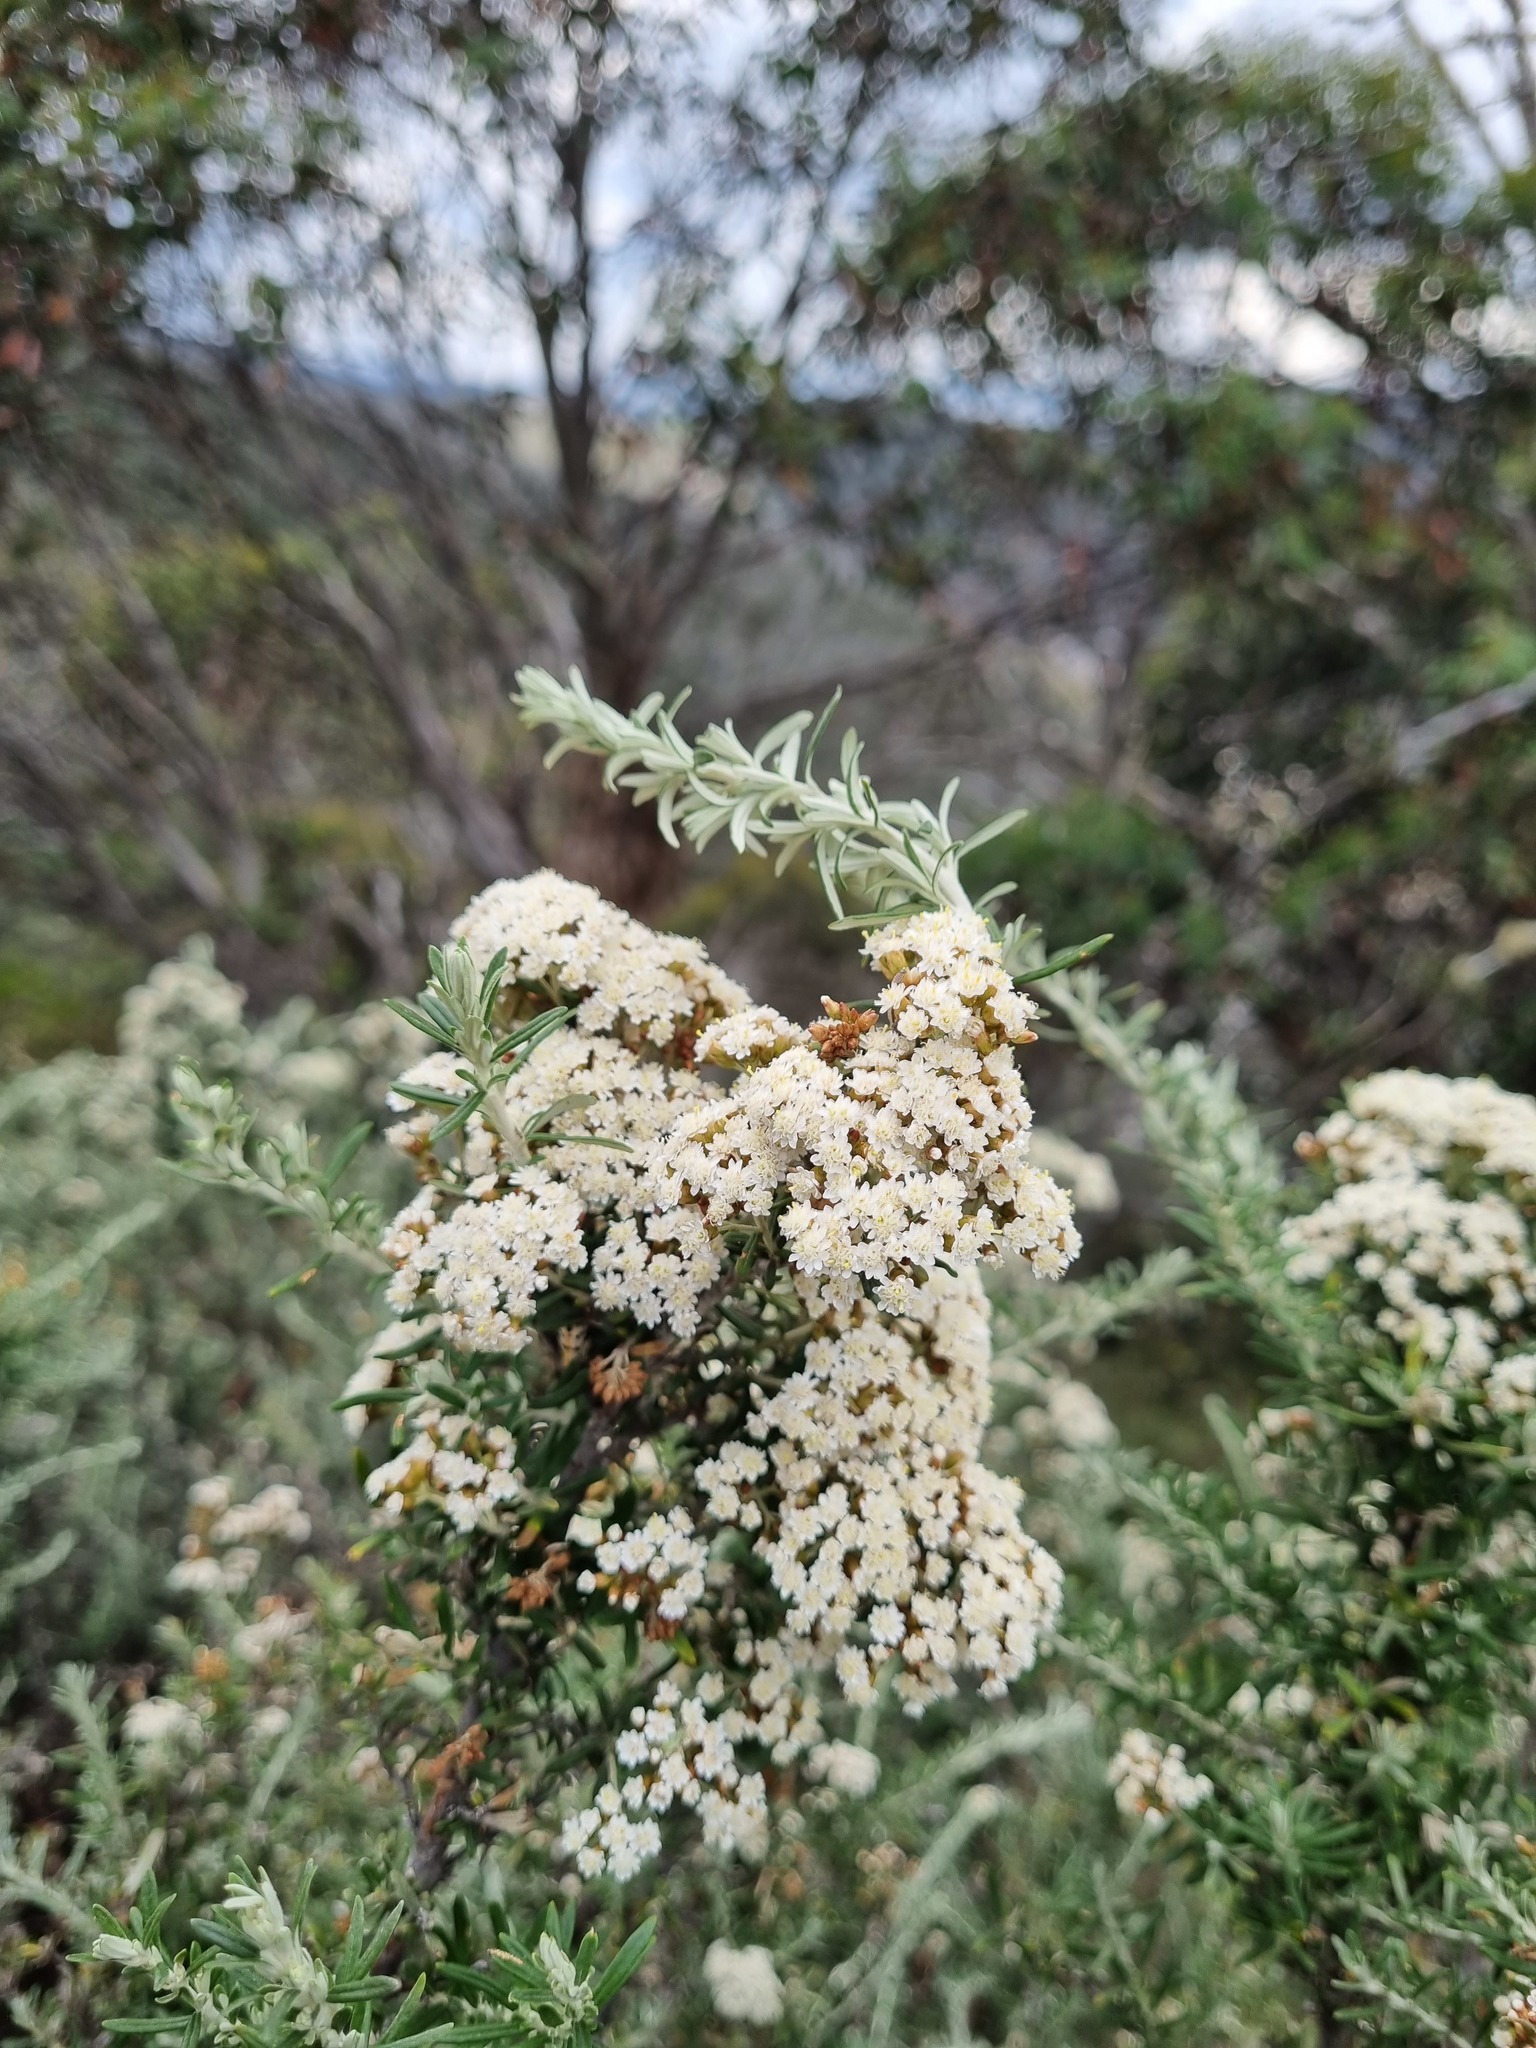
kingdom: Plantae
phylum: Tracheophyta
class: Magnoliopsida
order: Asterales
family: Asteraceae
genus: Ozothamnus
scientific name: Ozothamnus secundiflorus
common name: Cascade everlasting
